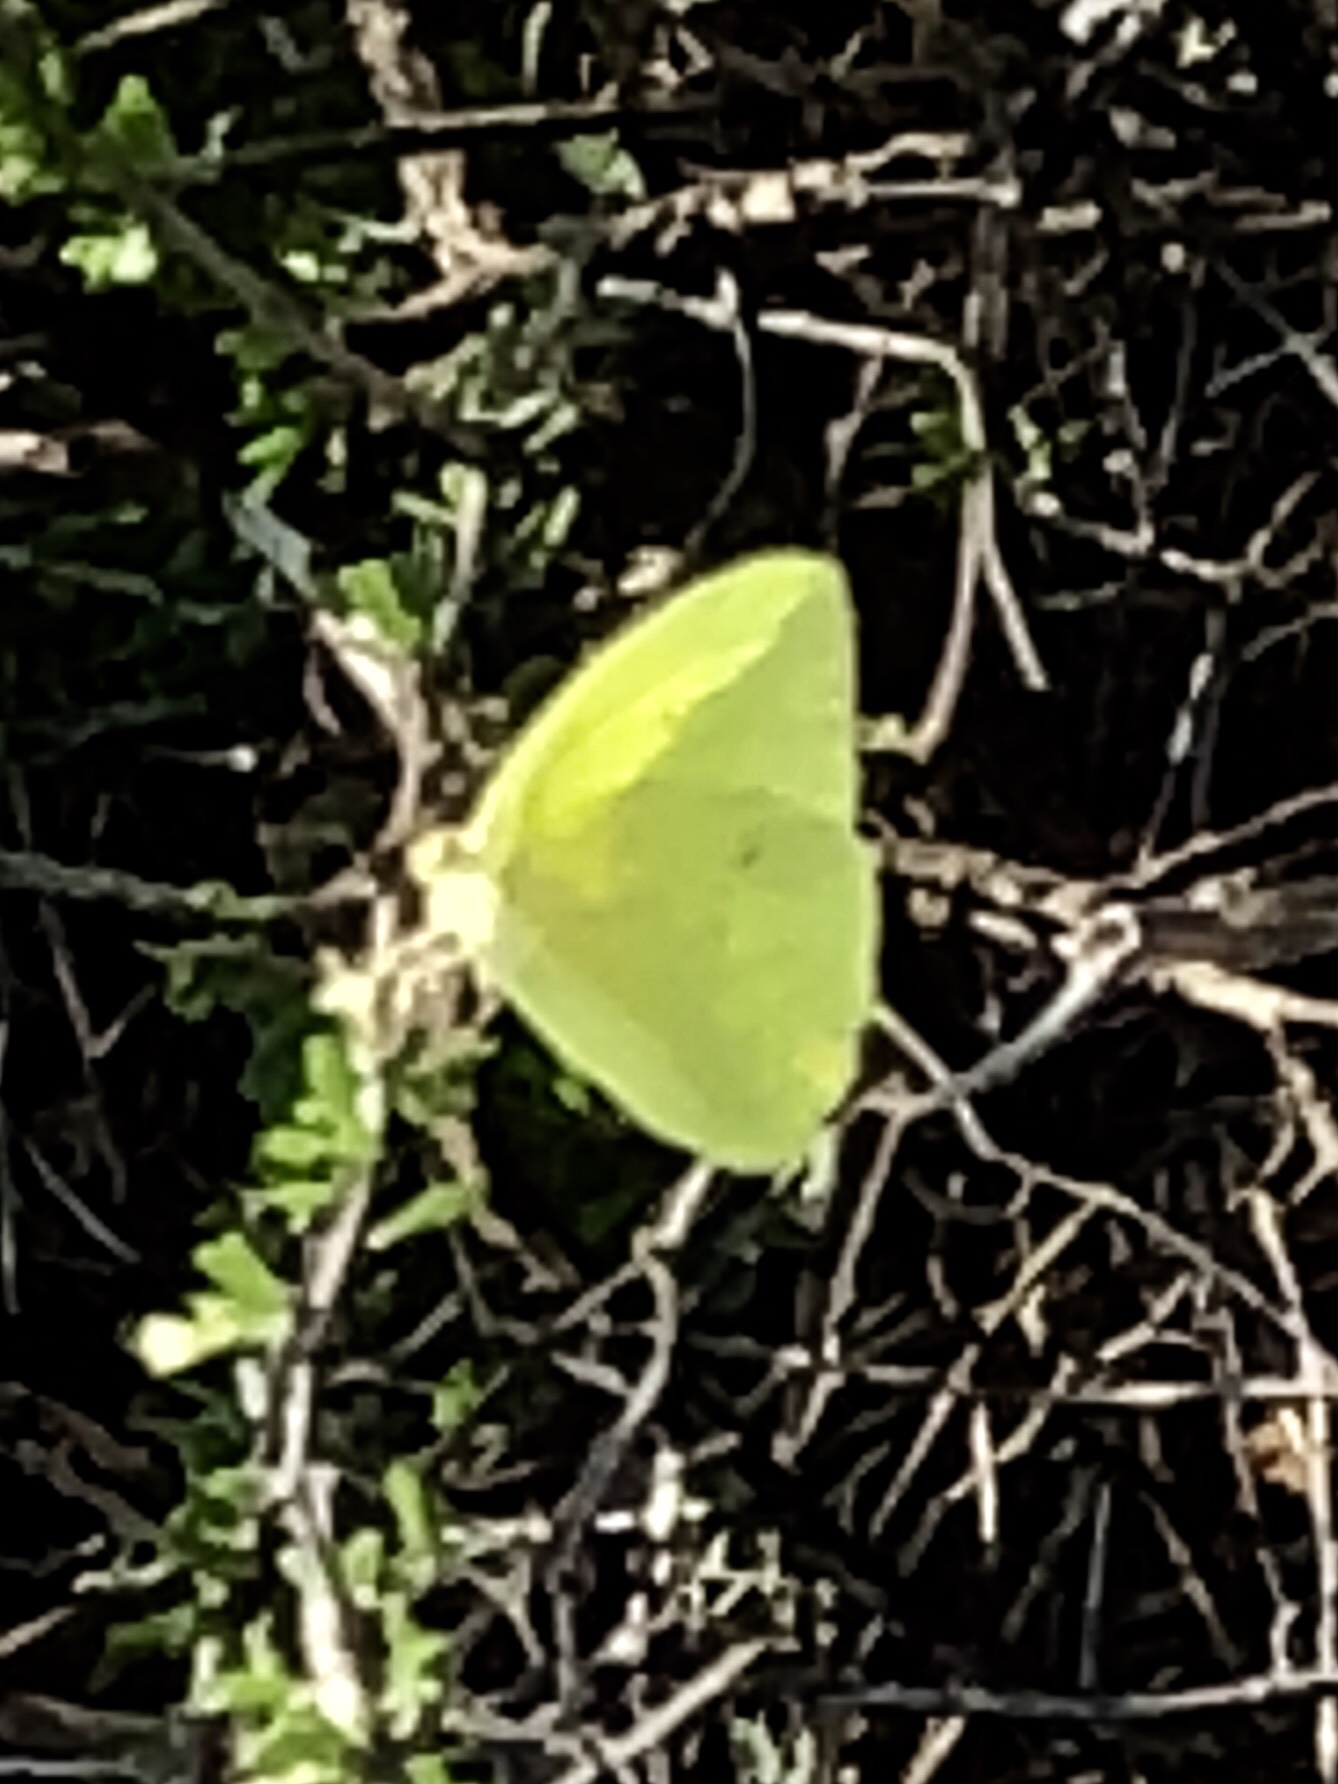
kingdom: Animalia
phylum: Arthropoda
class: Insecta
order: Lepidoptera
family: Pieridae
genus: Phoebis
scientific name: Phoebis sennae
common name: Cloudless sulphur
